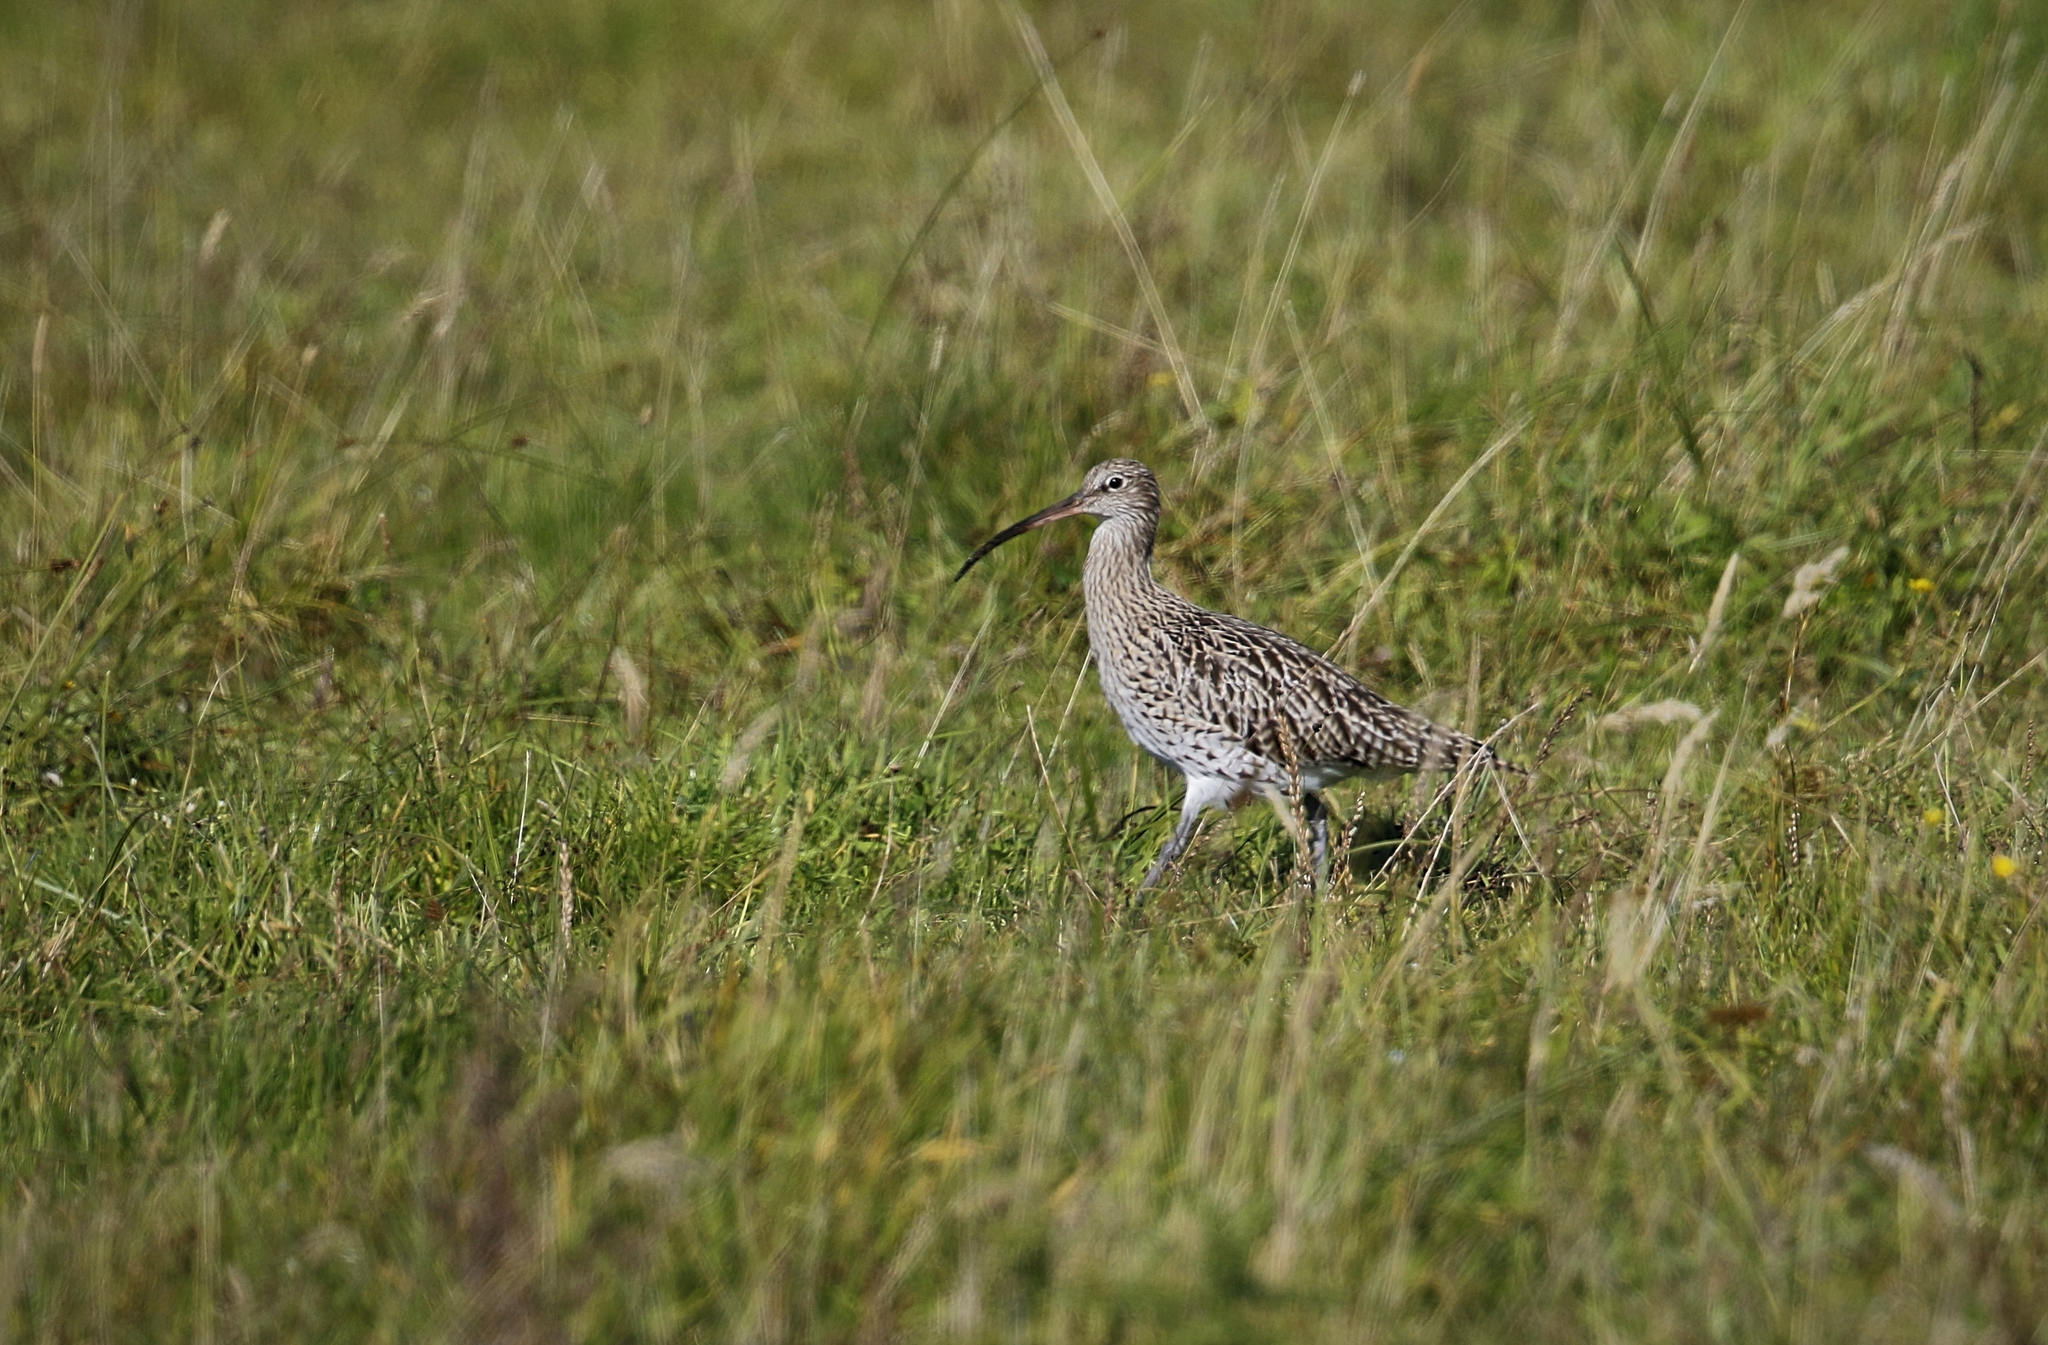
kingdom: Animalia
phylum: Chordata
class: Aves
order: Charadriiformes
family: Scolopacidae
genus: Numenius
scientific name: Numenius arquata
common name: Eurasian curlew
